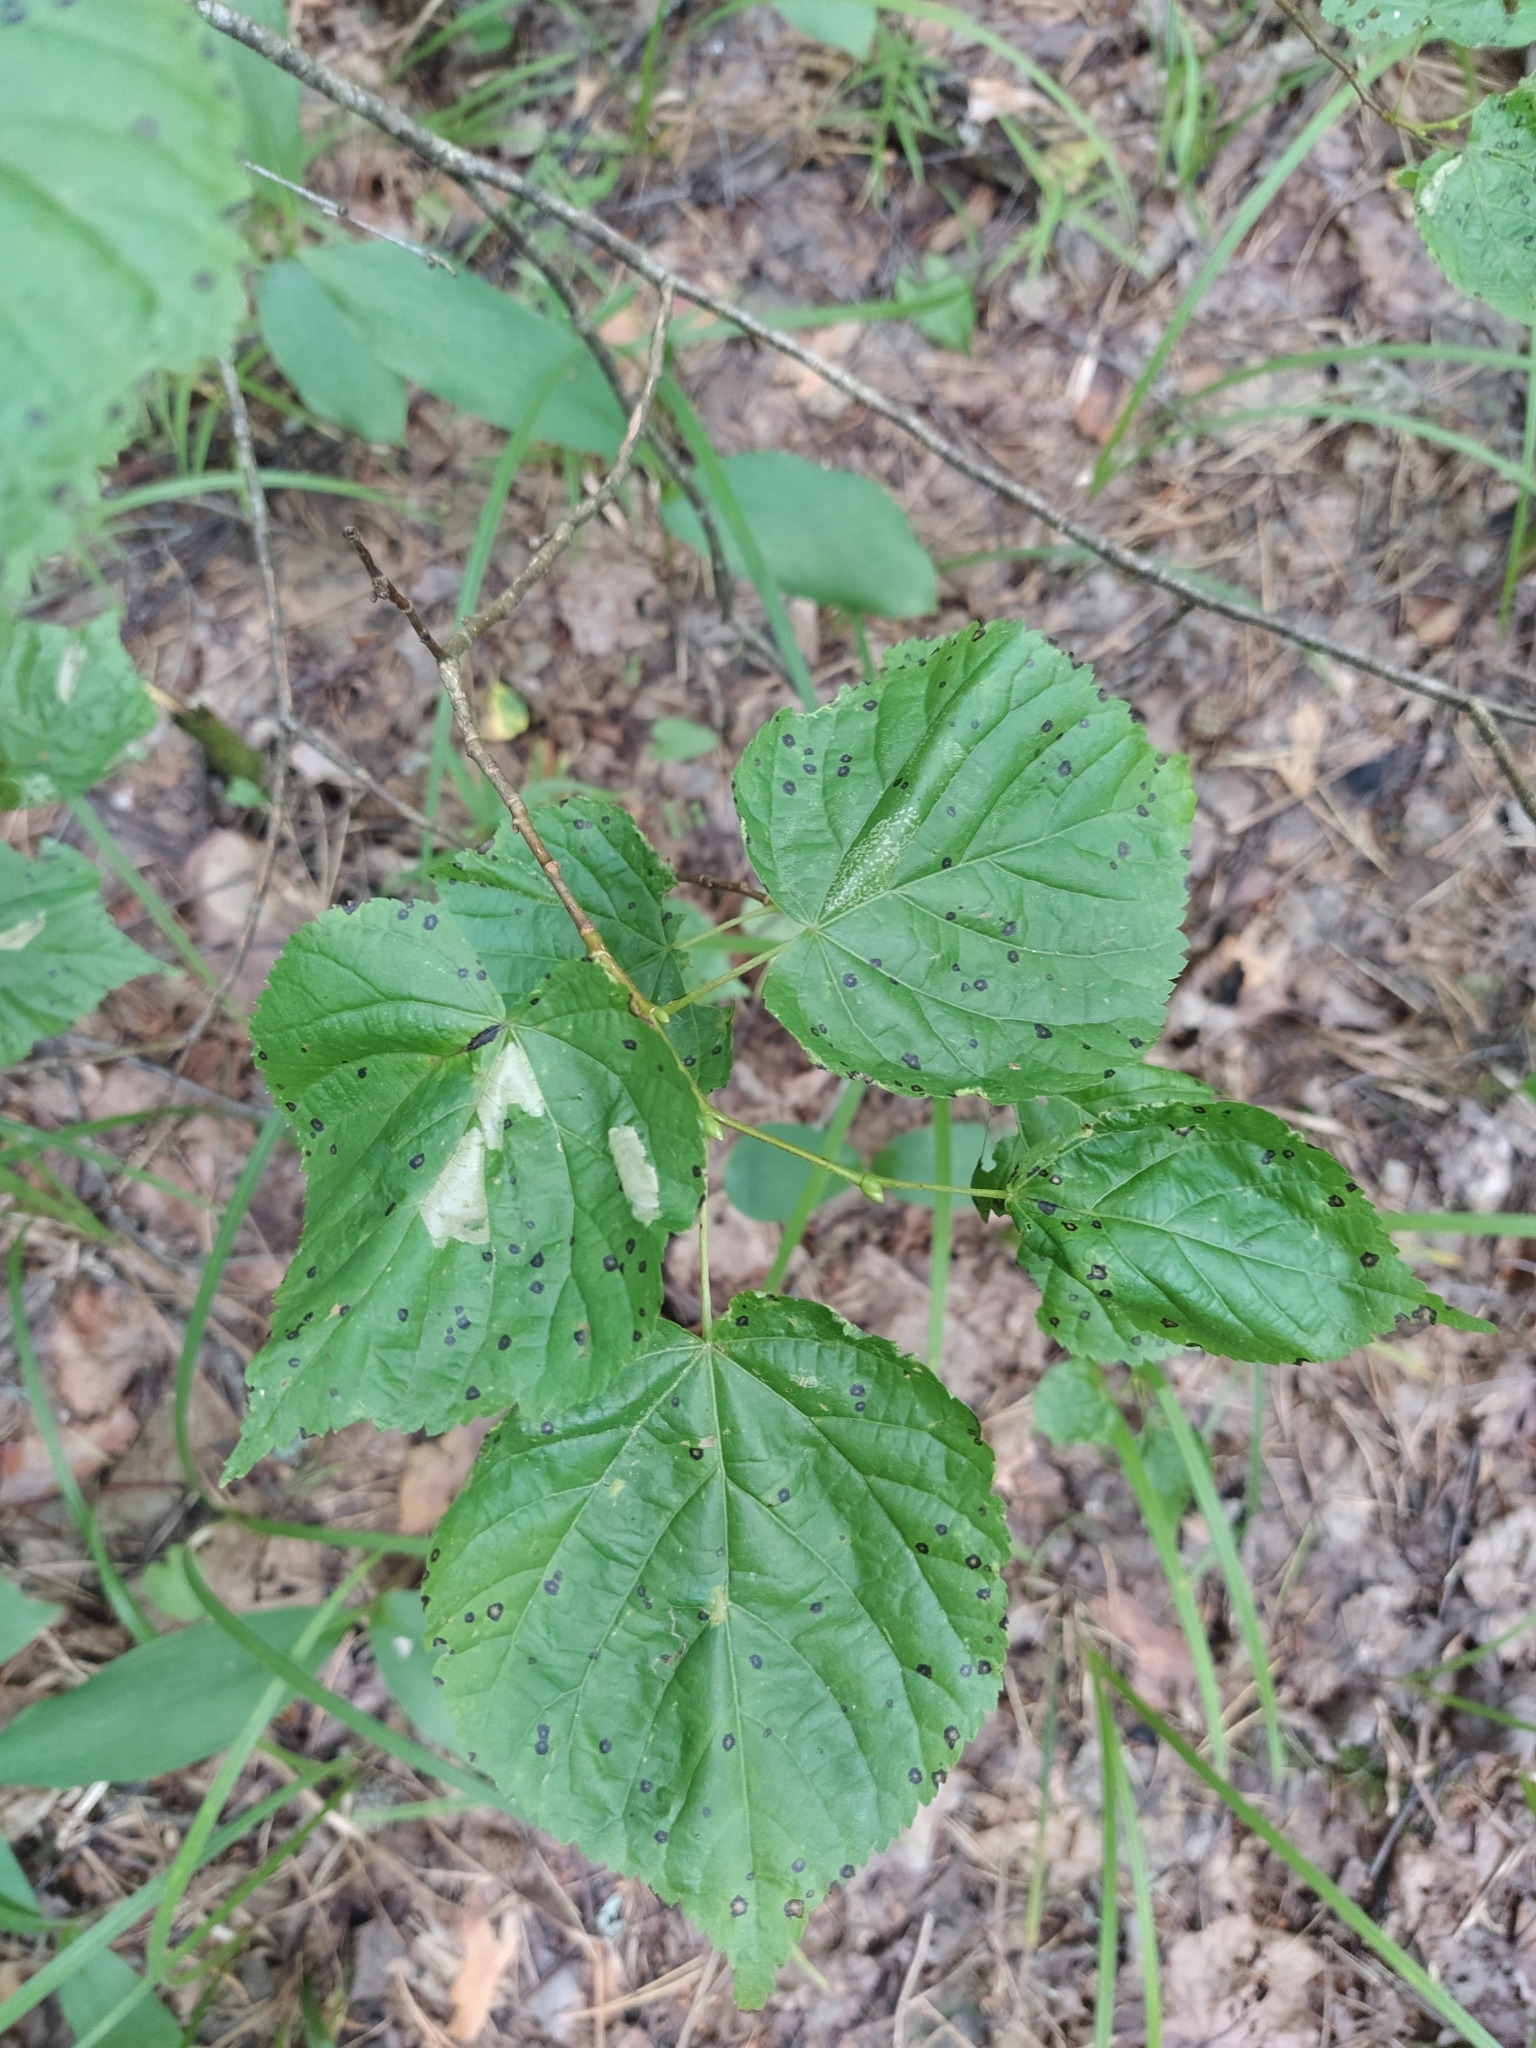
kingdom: Plantae
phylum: Tracheophyta
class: Magnoliopsida
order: Malvales
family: Malvaceae
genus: Tilia
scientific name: Tilia cordata
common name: Small-leaved lime
